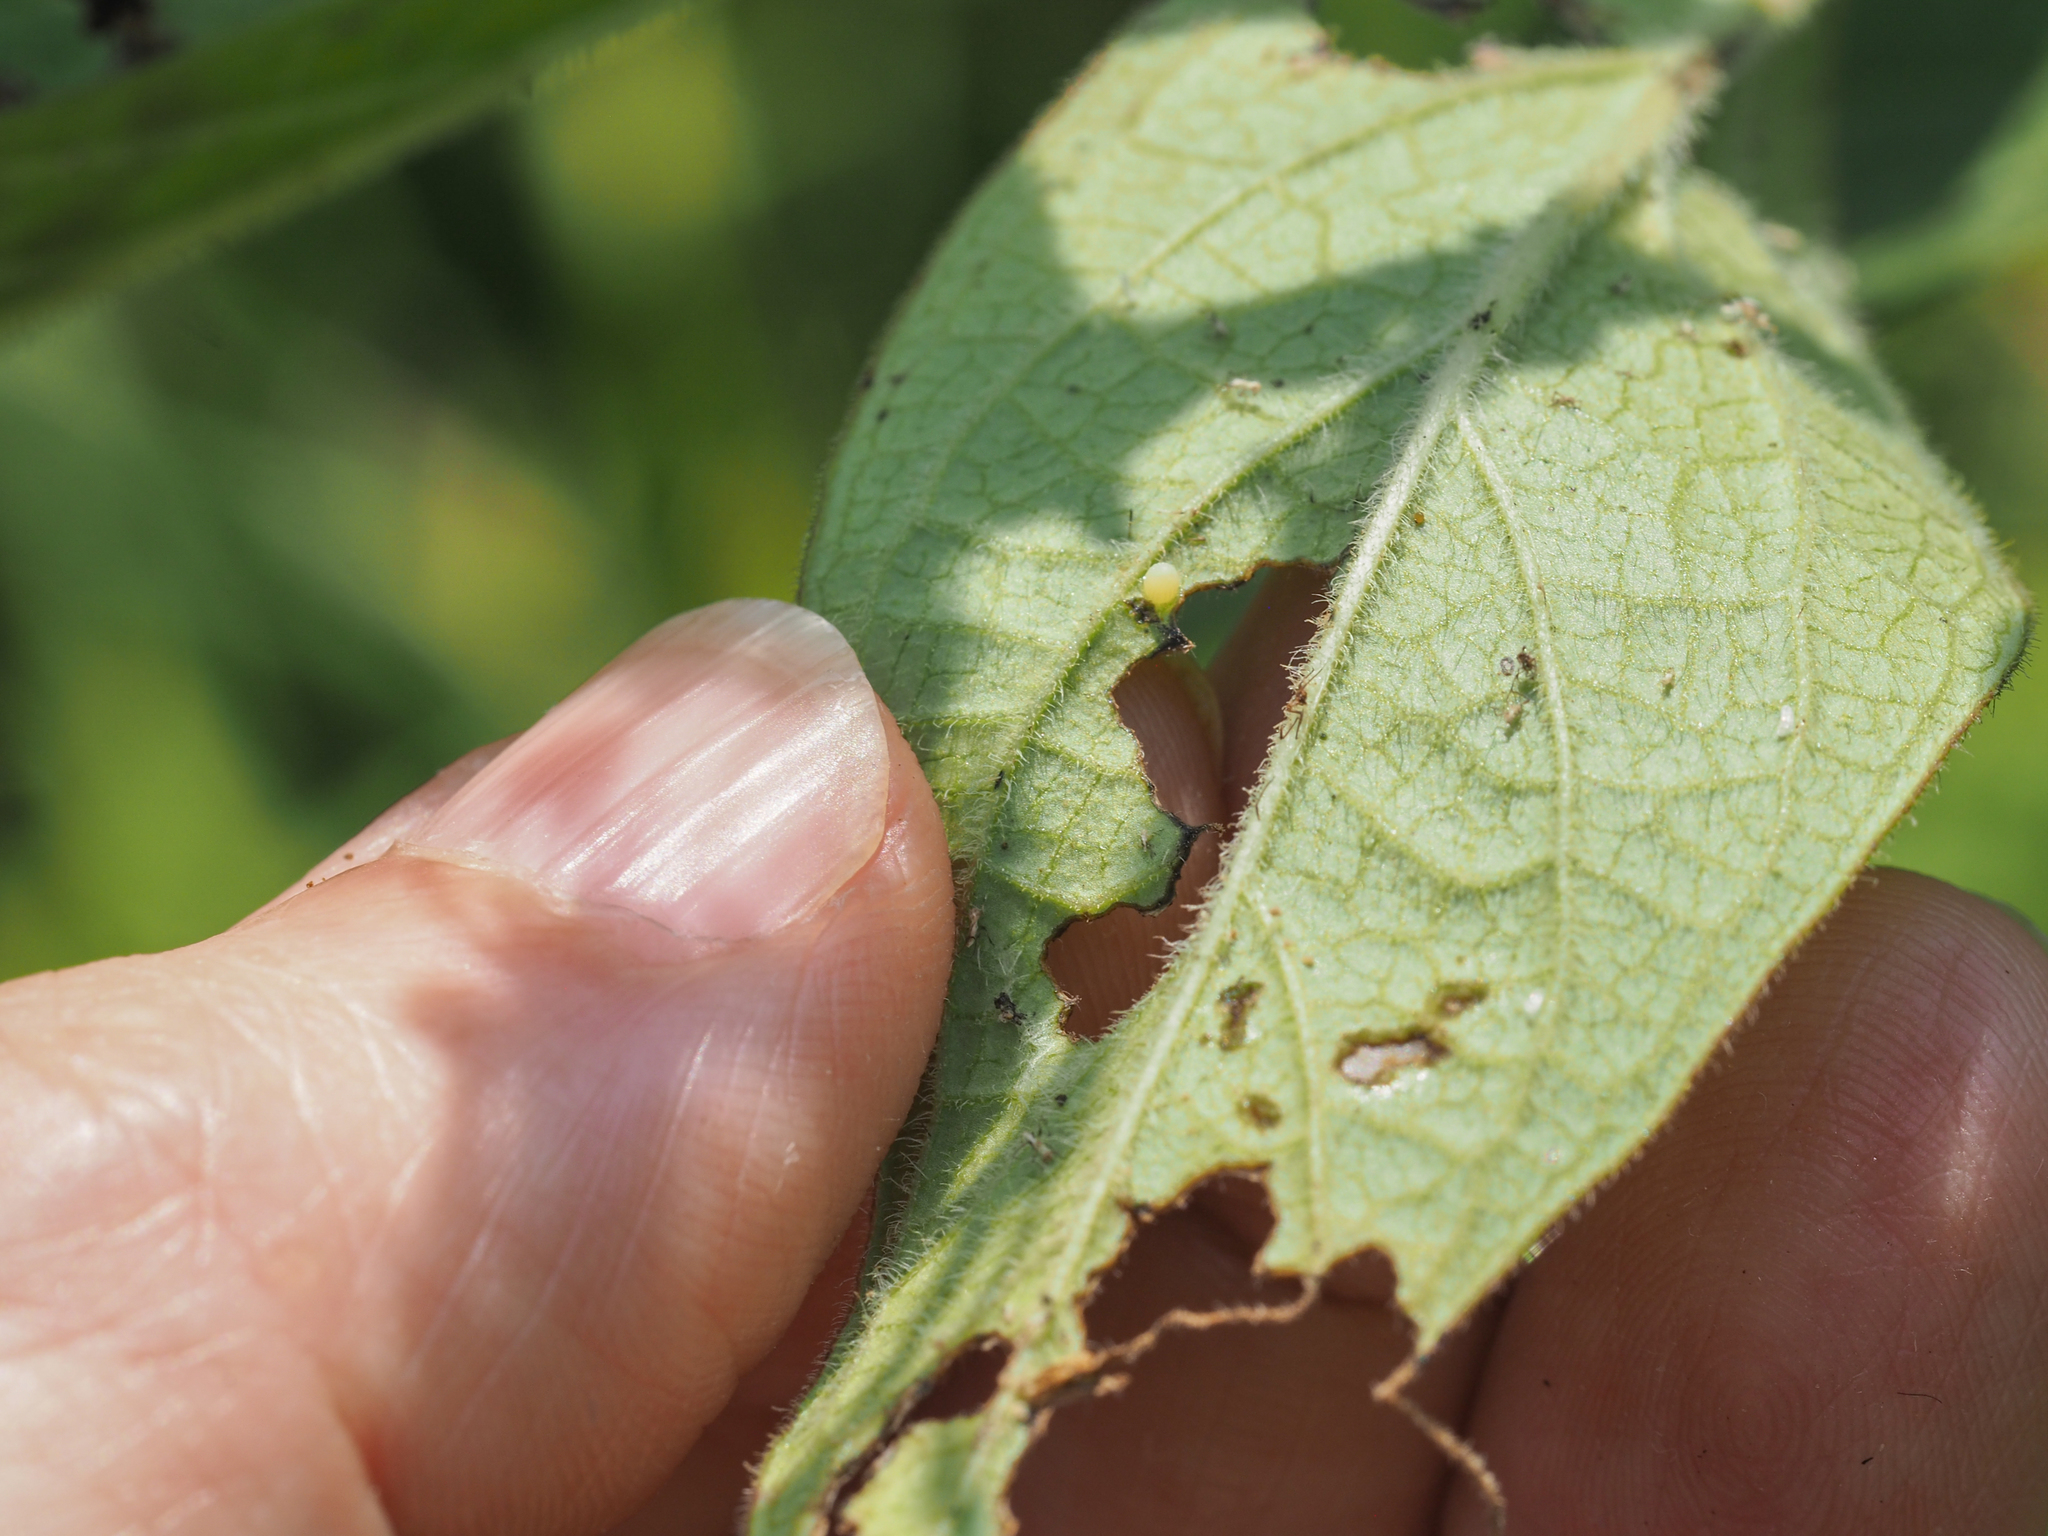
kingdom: Animalia
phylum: Arthropoda
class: Insecta
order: Lepidoptera
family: Nymphalidae
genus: Danaus
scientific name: Danaus plexippus
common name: Monarch
